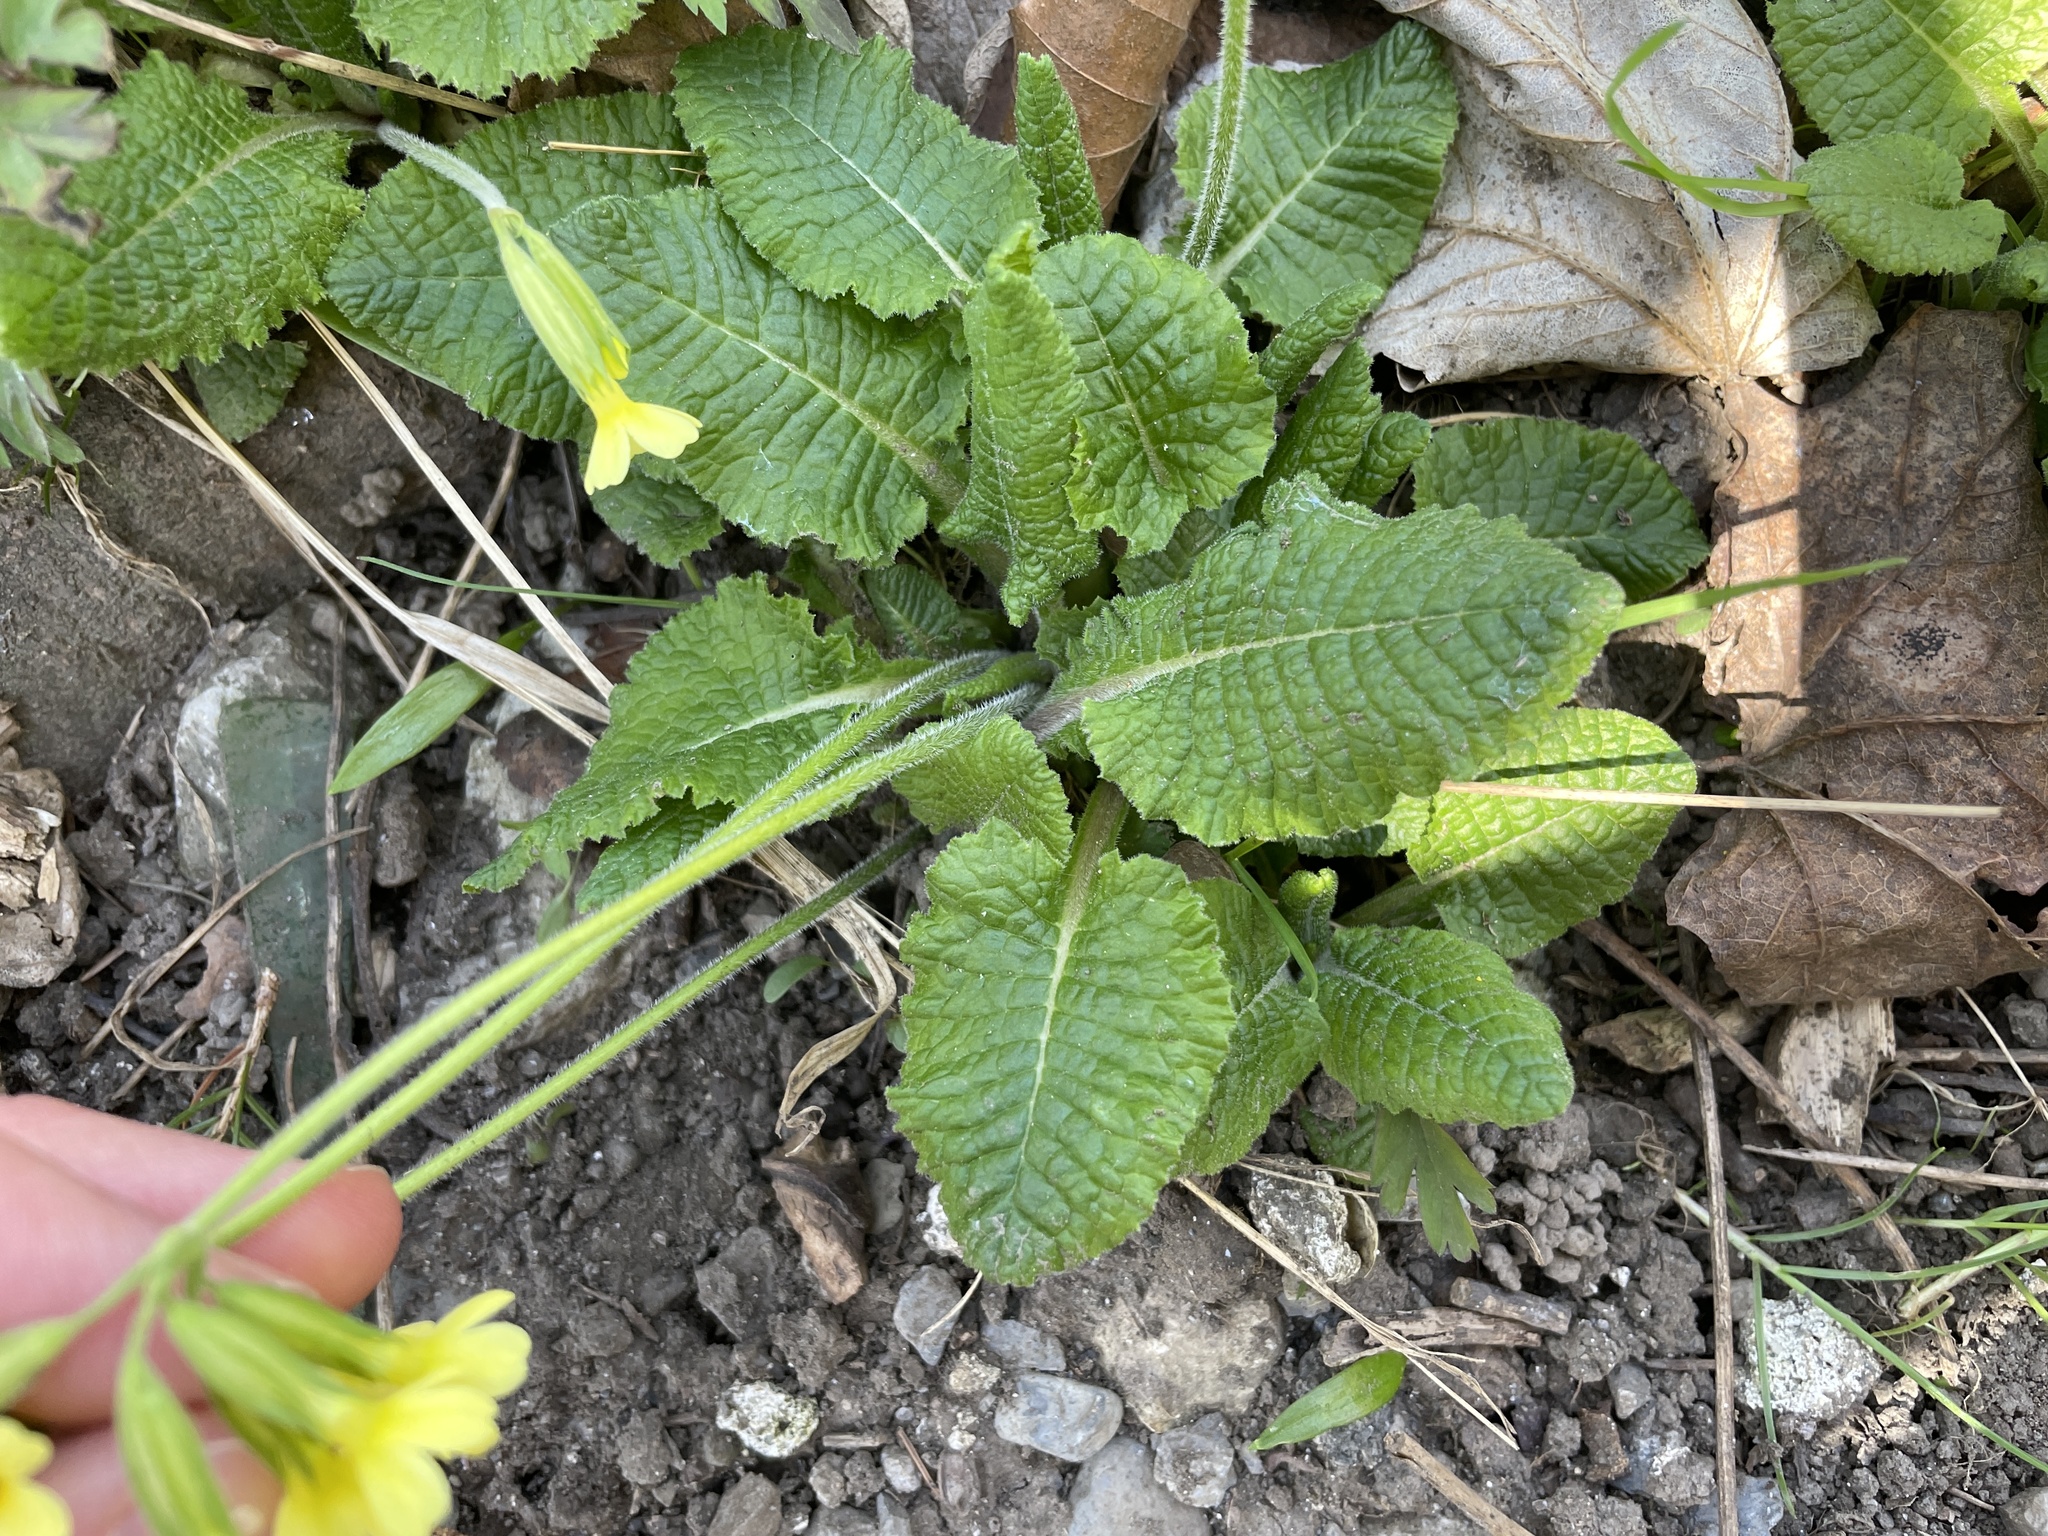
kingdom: Plantae
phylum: Tracheophyta
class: Magnoliopsida
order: Ericales
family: Primulaceae
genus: Primula
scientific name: Primula elatior
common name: Oxlip
